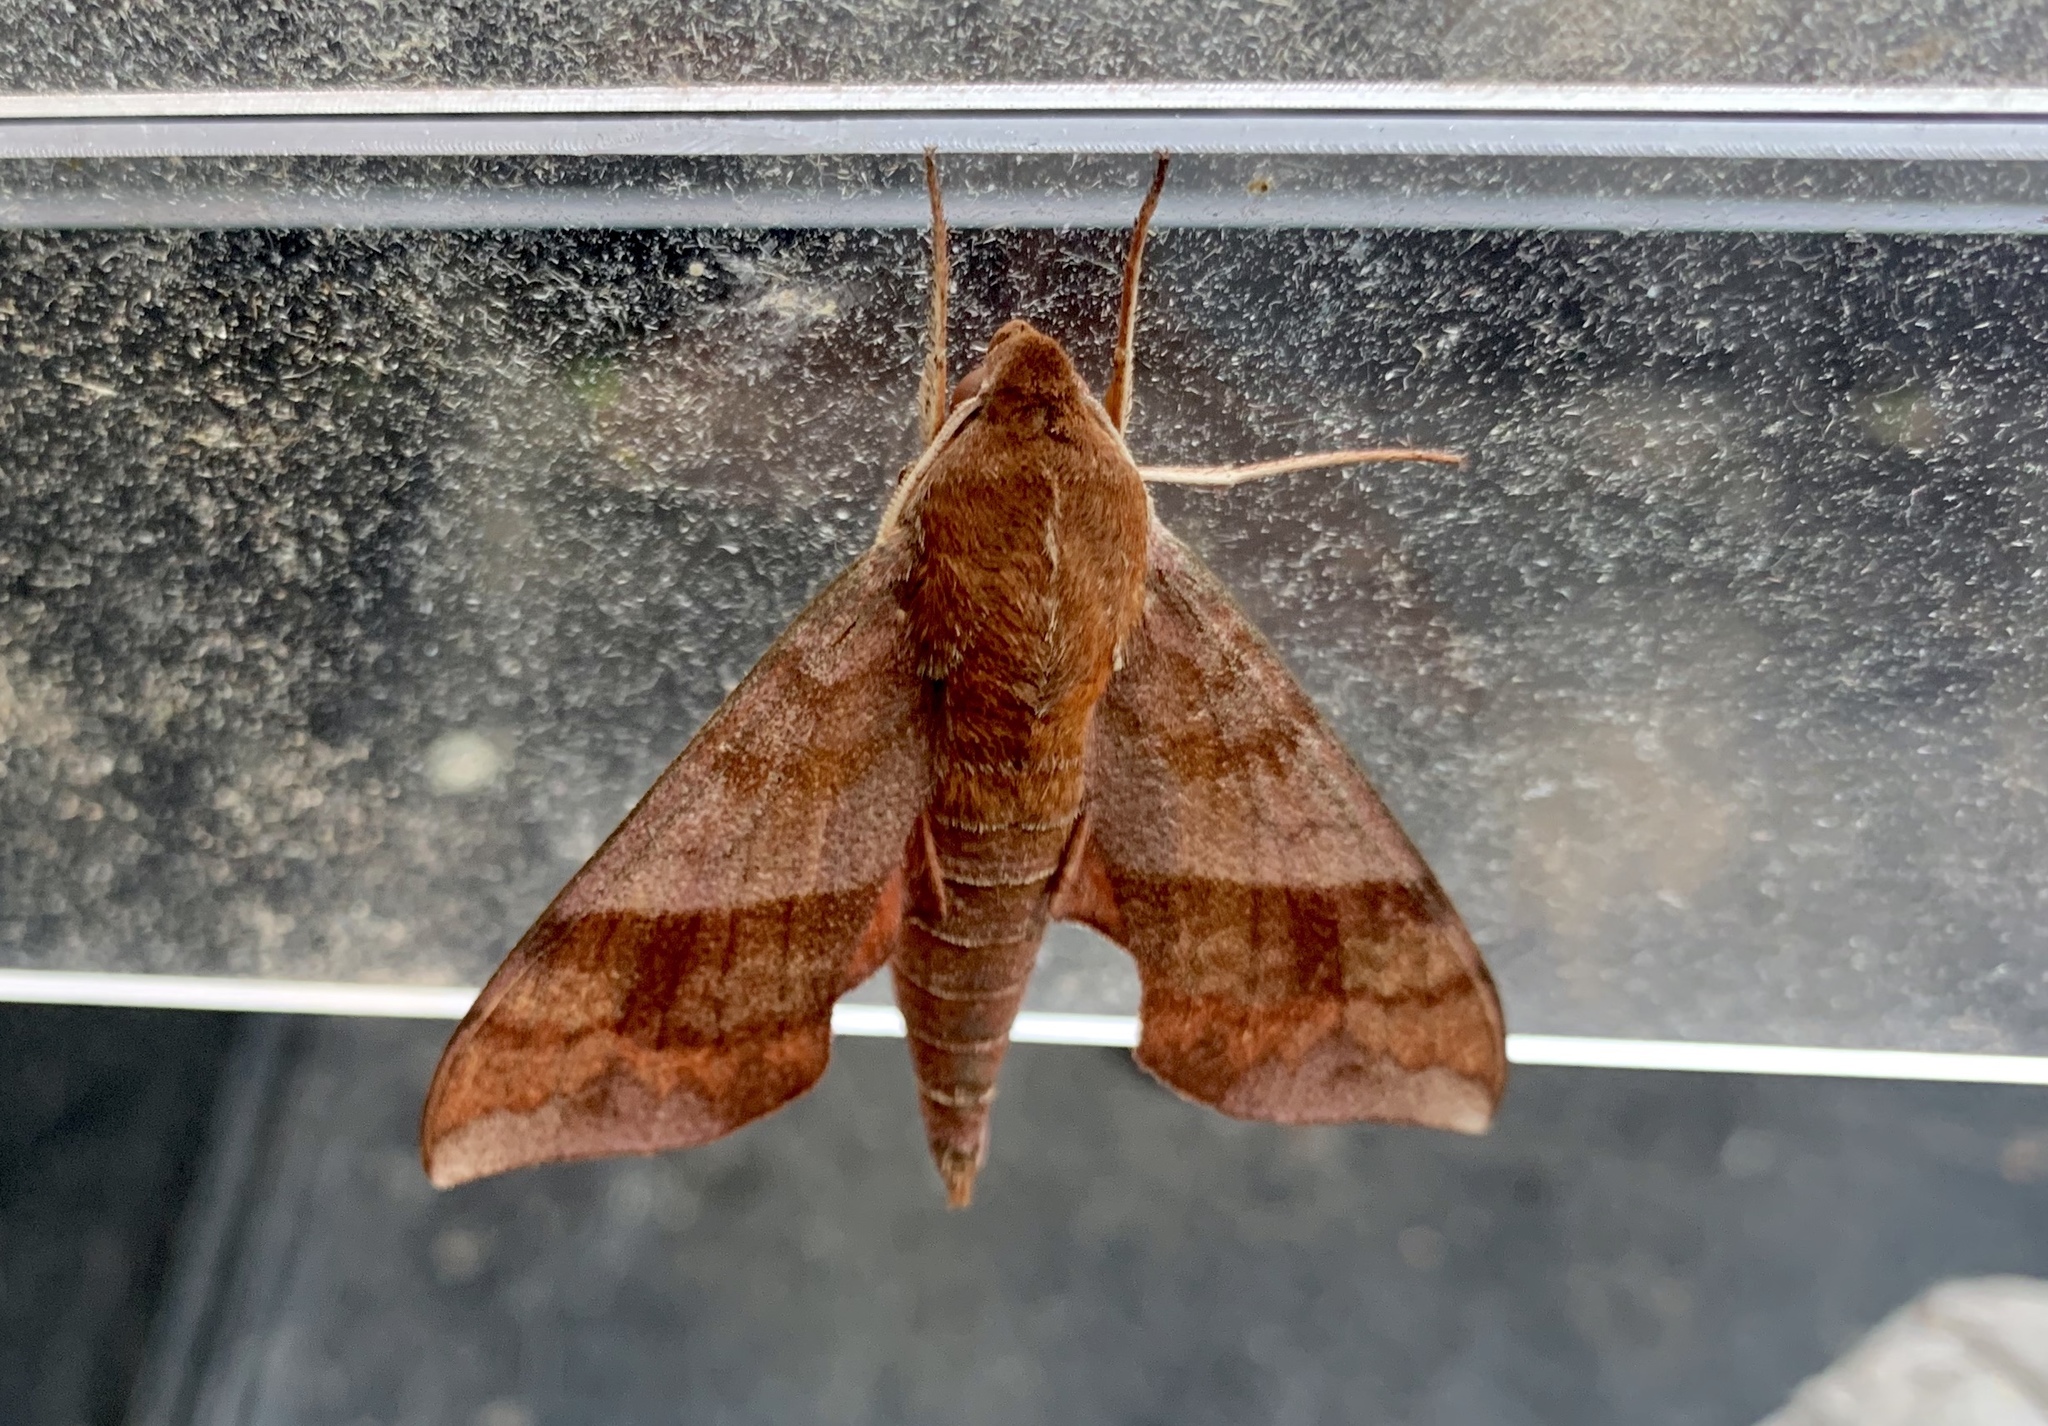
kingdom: Animalia
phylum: Arthropoda
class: Insecta
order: Lepidoptera
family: Sphingidae
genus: Darapsa
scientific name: Darapsa choerilus
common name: Azalea sphinx
